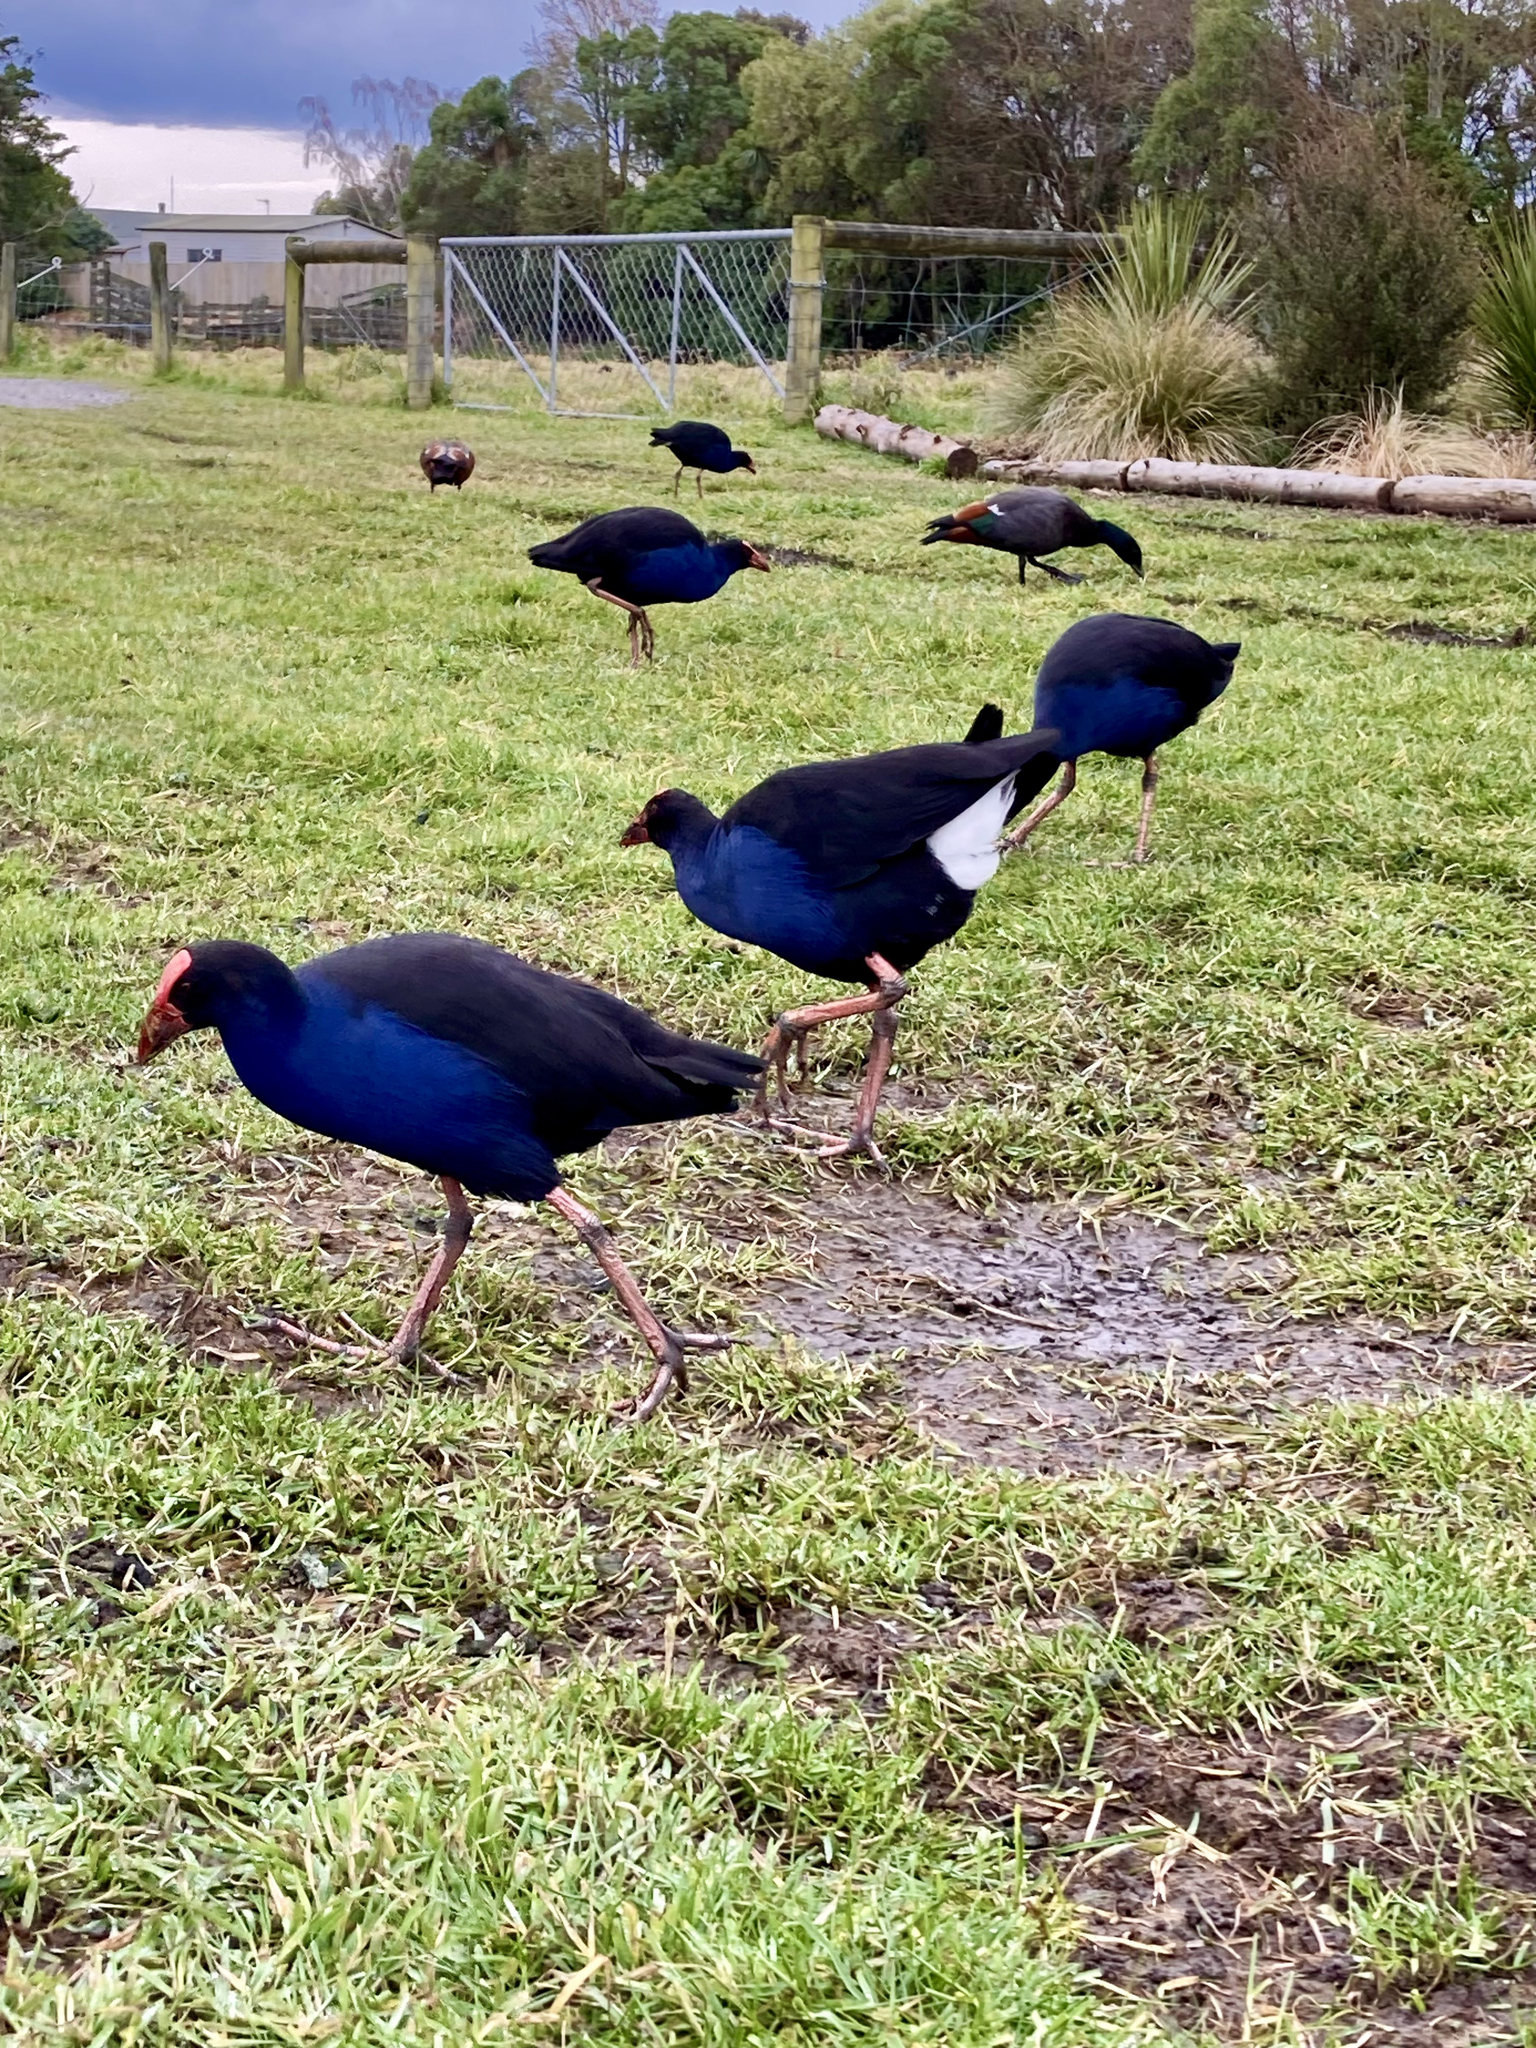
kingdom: Animalia
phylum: Chordata
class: Aves
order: Gruiformes
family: Rallidae
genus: Porphyrio
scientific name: Porphyrio melanotus
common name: Australasian swamphen
